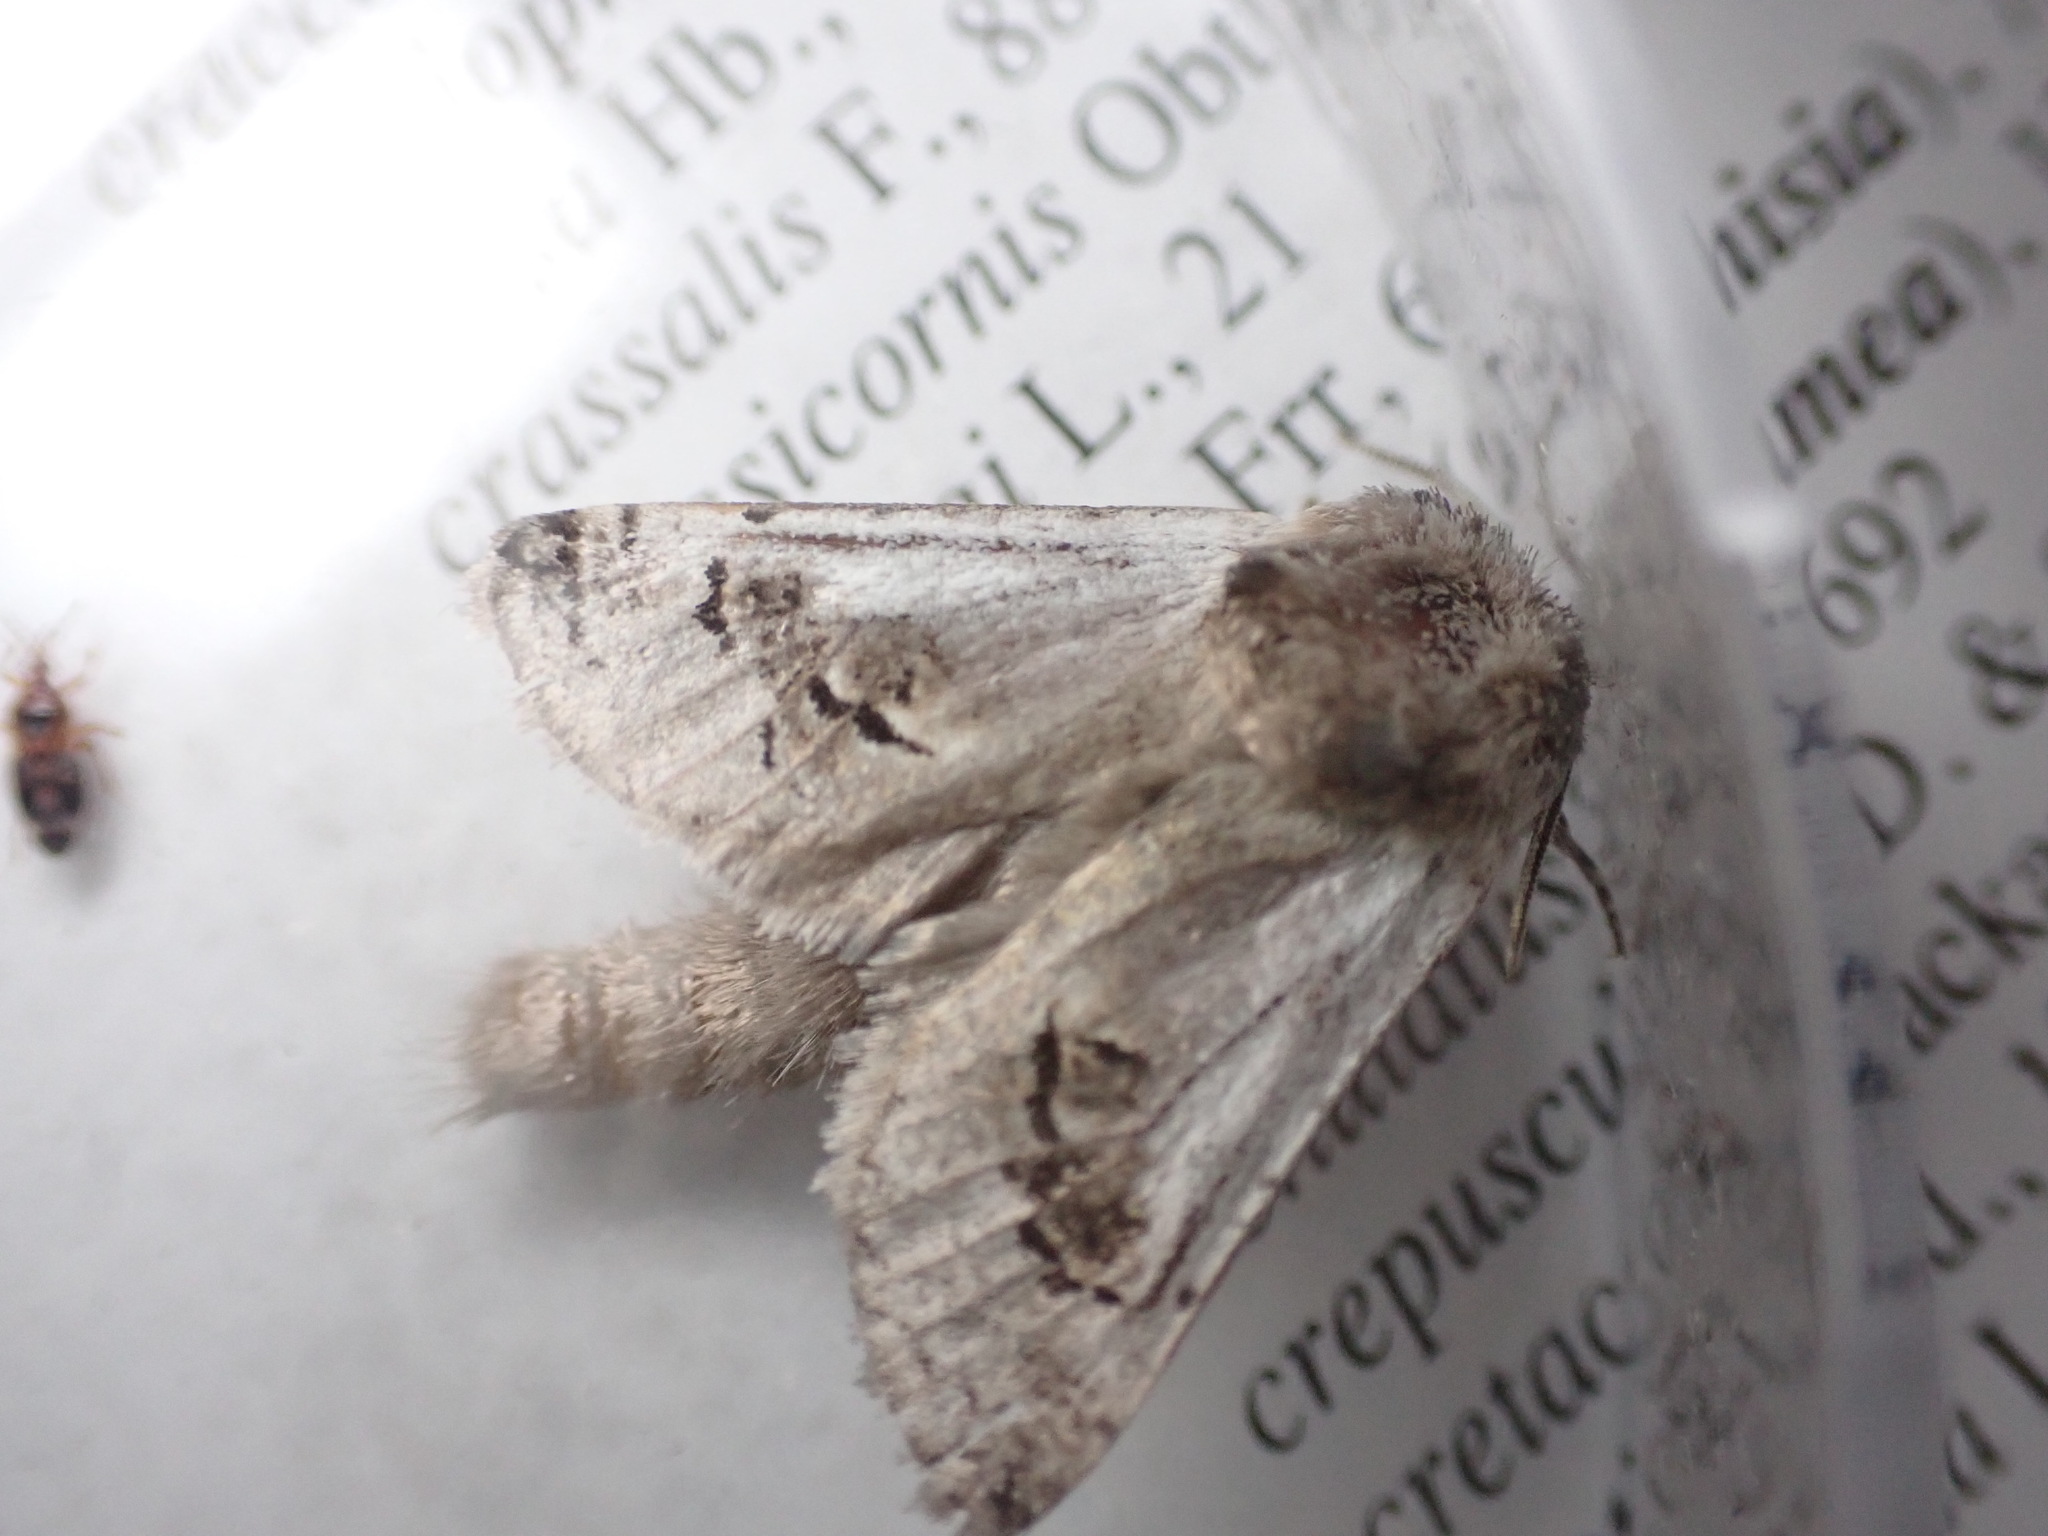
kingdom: Animalia
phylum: Arthropoda
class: Insecta
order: Lepidoptera
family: Cossidae
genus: Parahypopta
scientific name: Parahypopta caestrum
